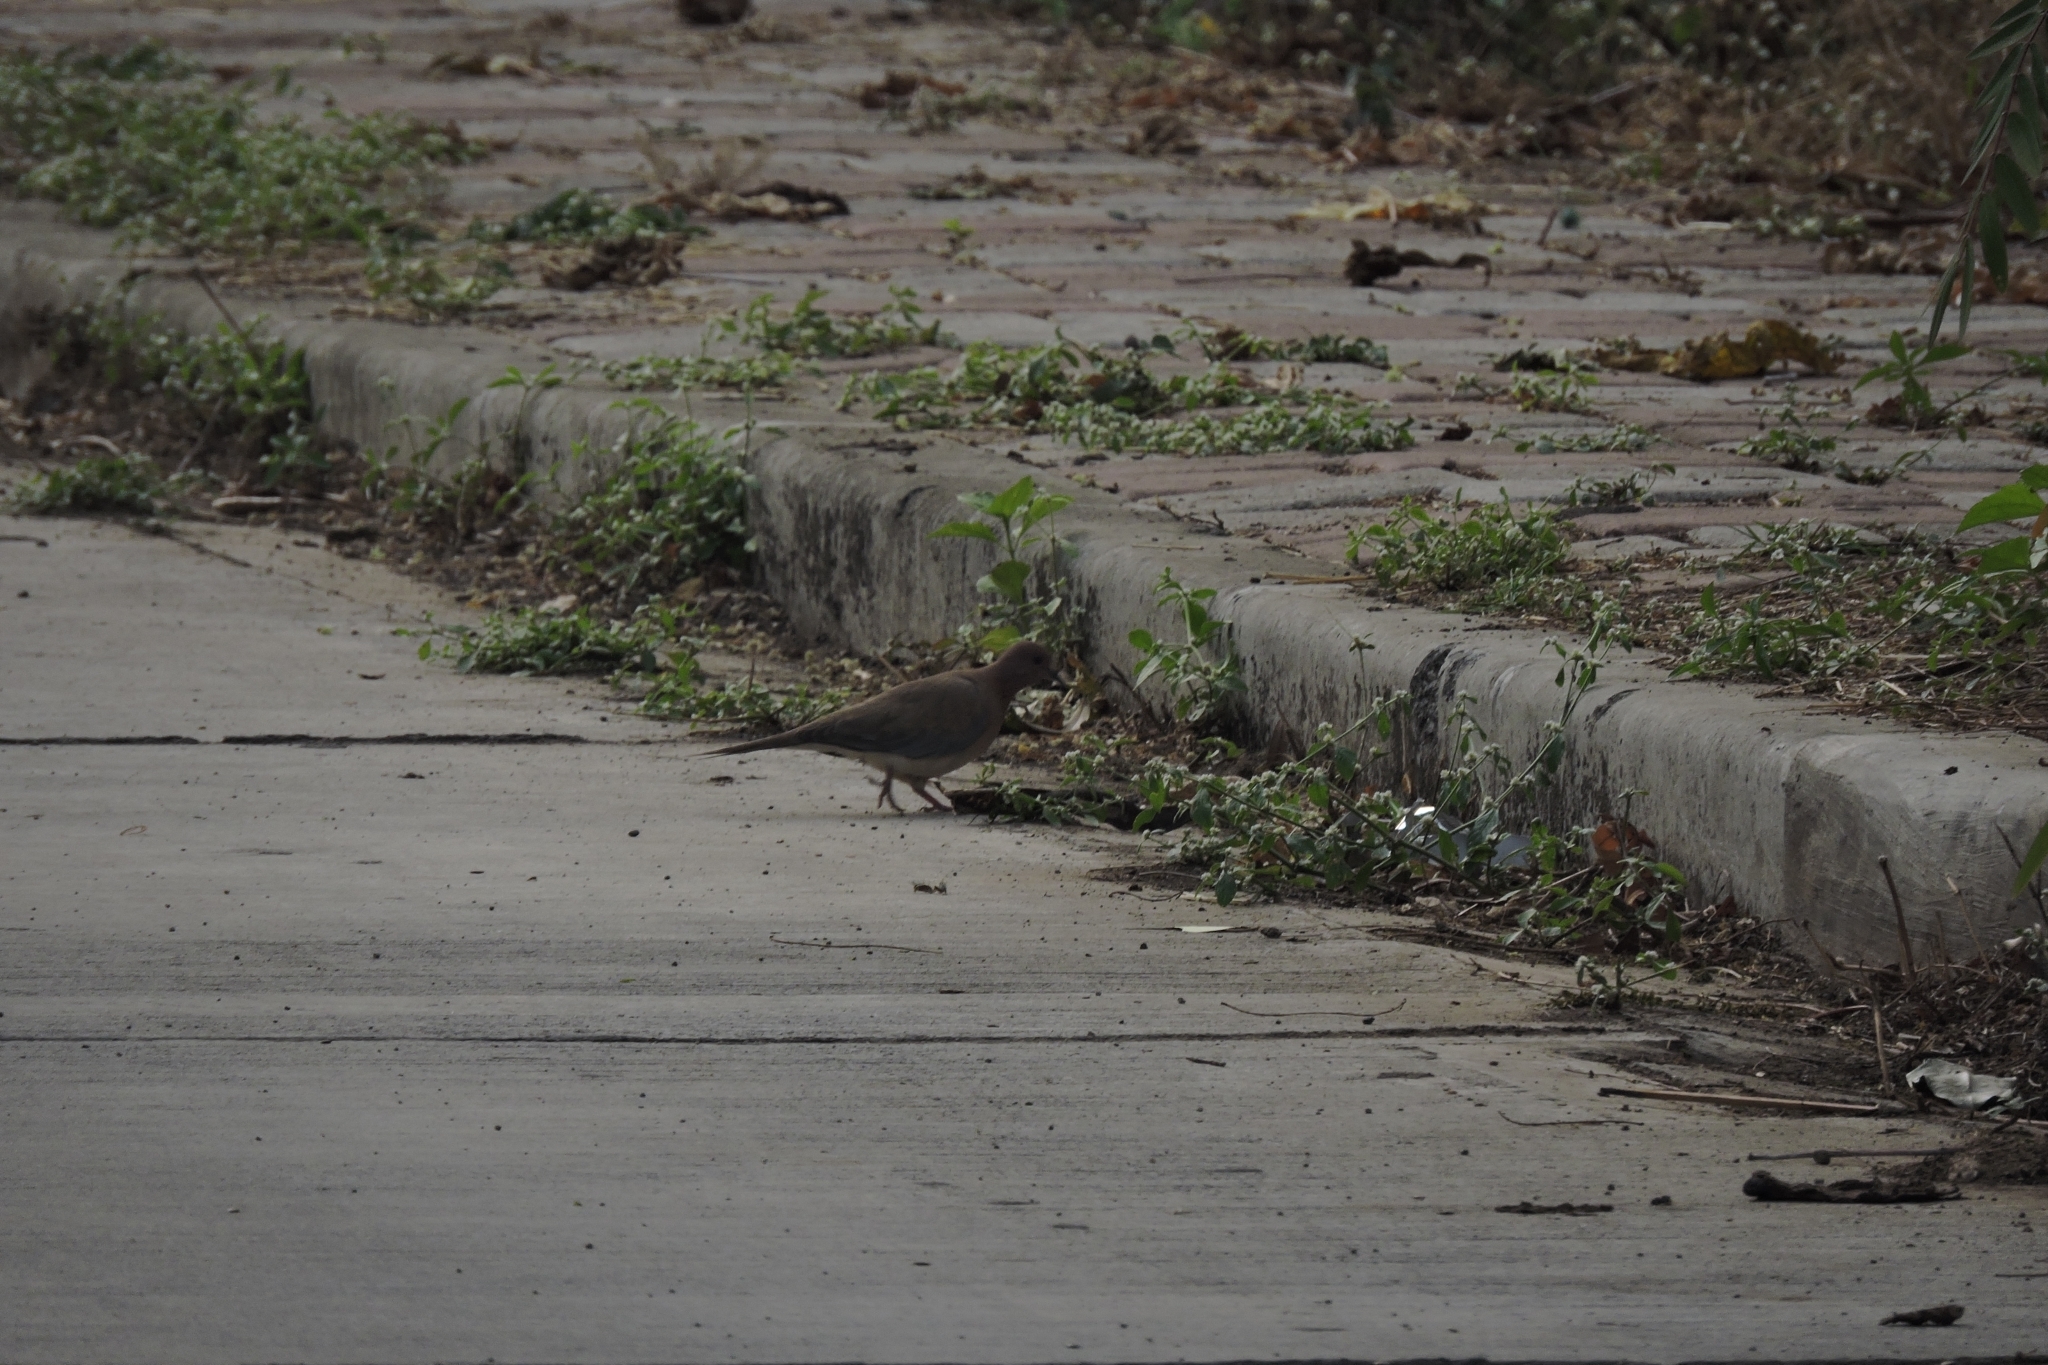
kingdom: Animalia
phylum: Chordata
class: Aves
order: Columbiformes
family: Columbidae
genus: Spilopelia
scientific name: Spilopelia senegalensis
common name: Laughing dove
